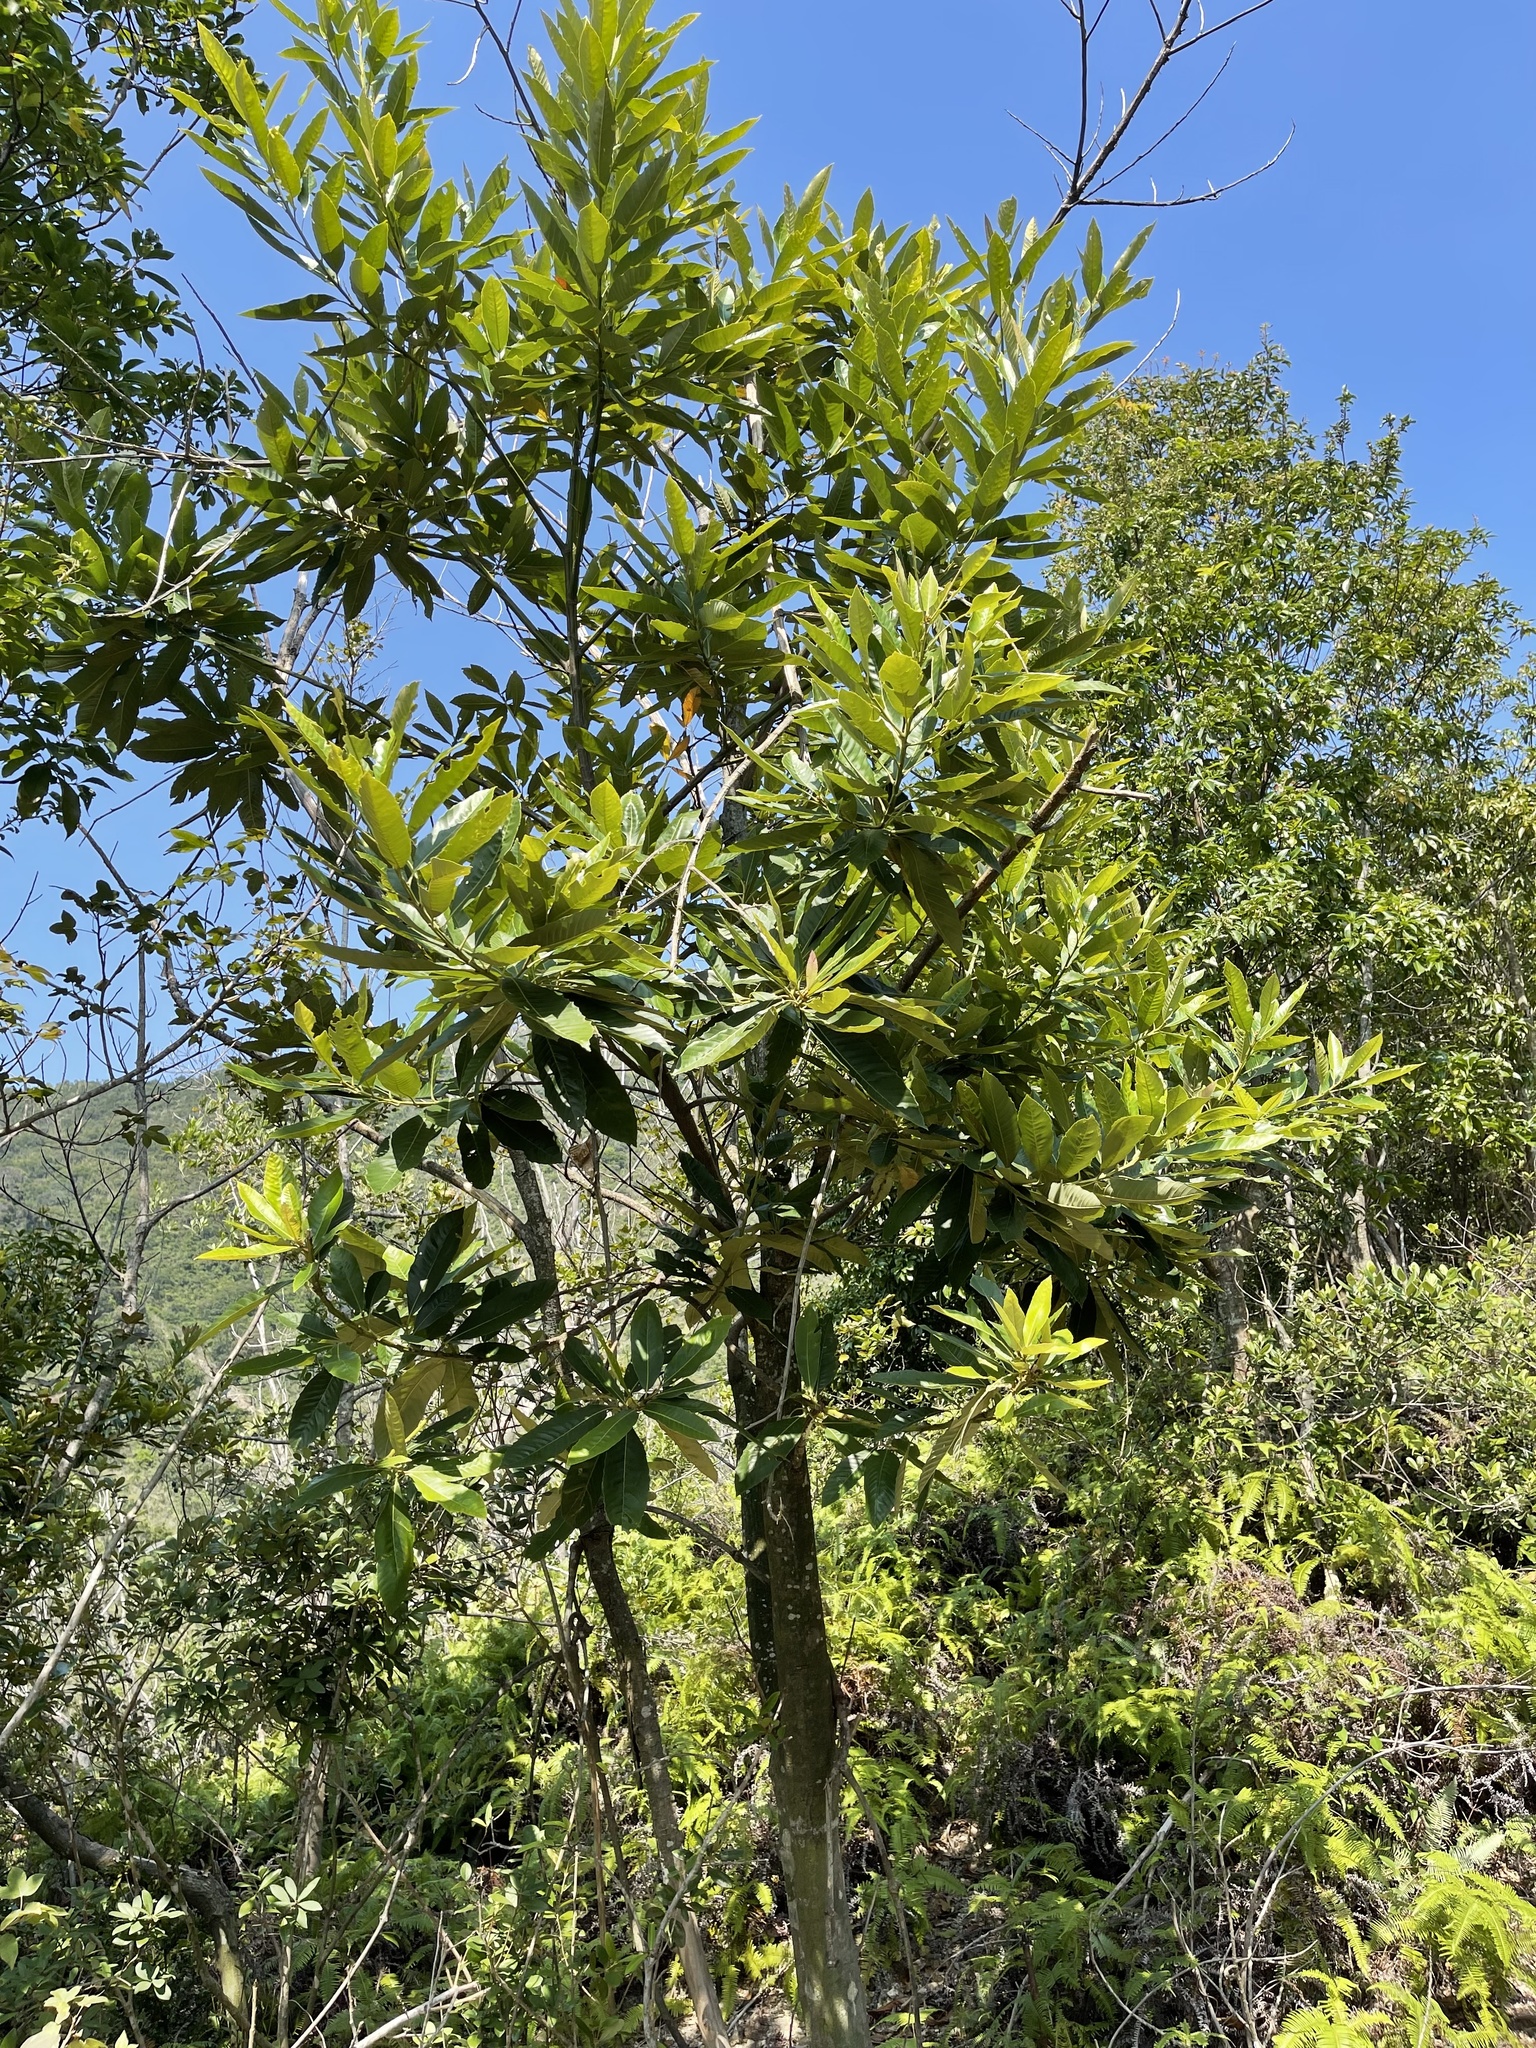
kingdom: Plantae
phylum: Tracheophyta
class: Magnoliopsida
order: Fagales
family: Fagaceae
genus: Castanopsis
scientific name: Castanopsis fissa
